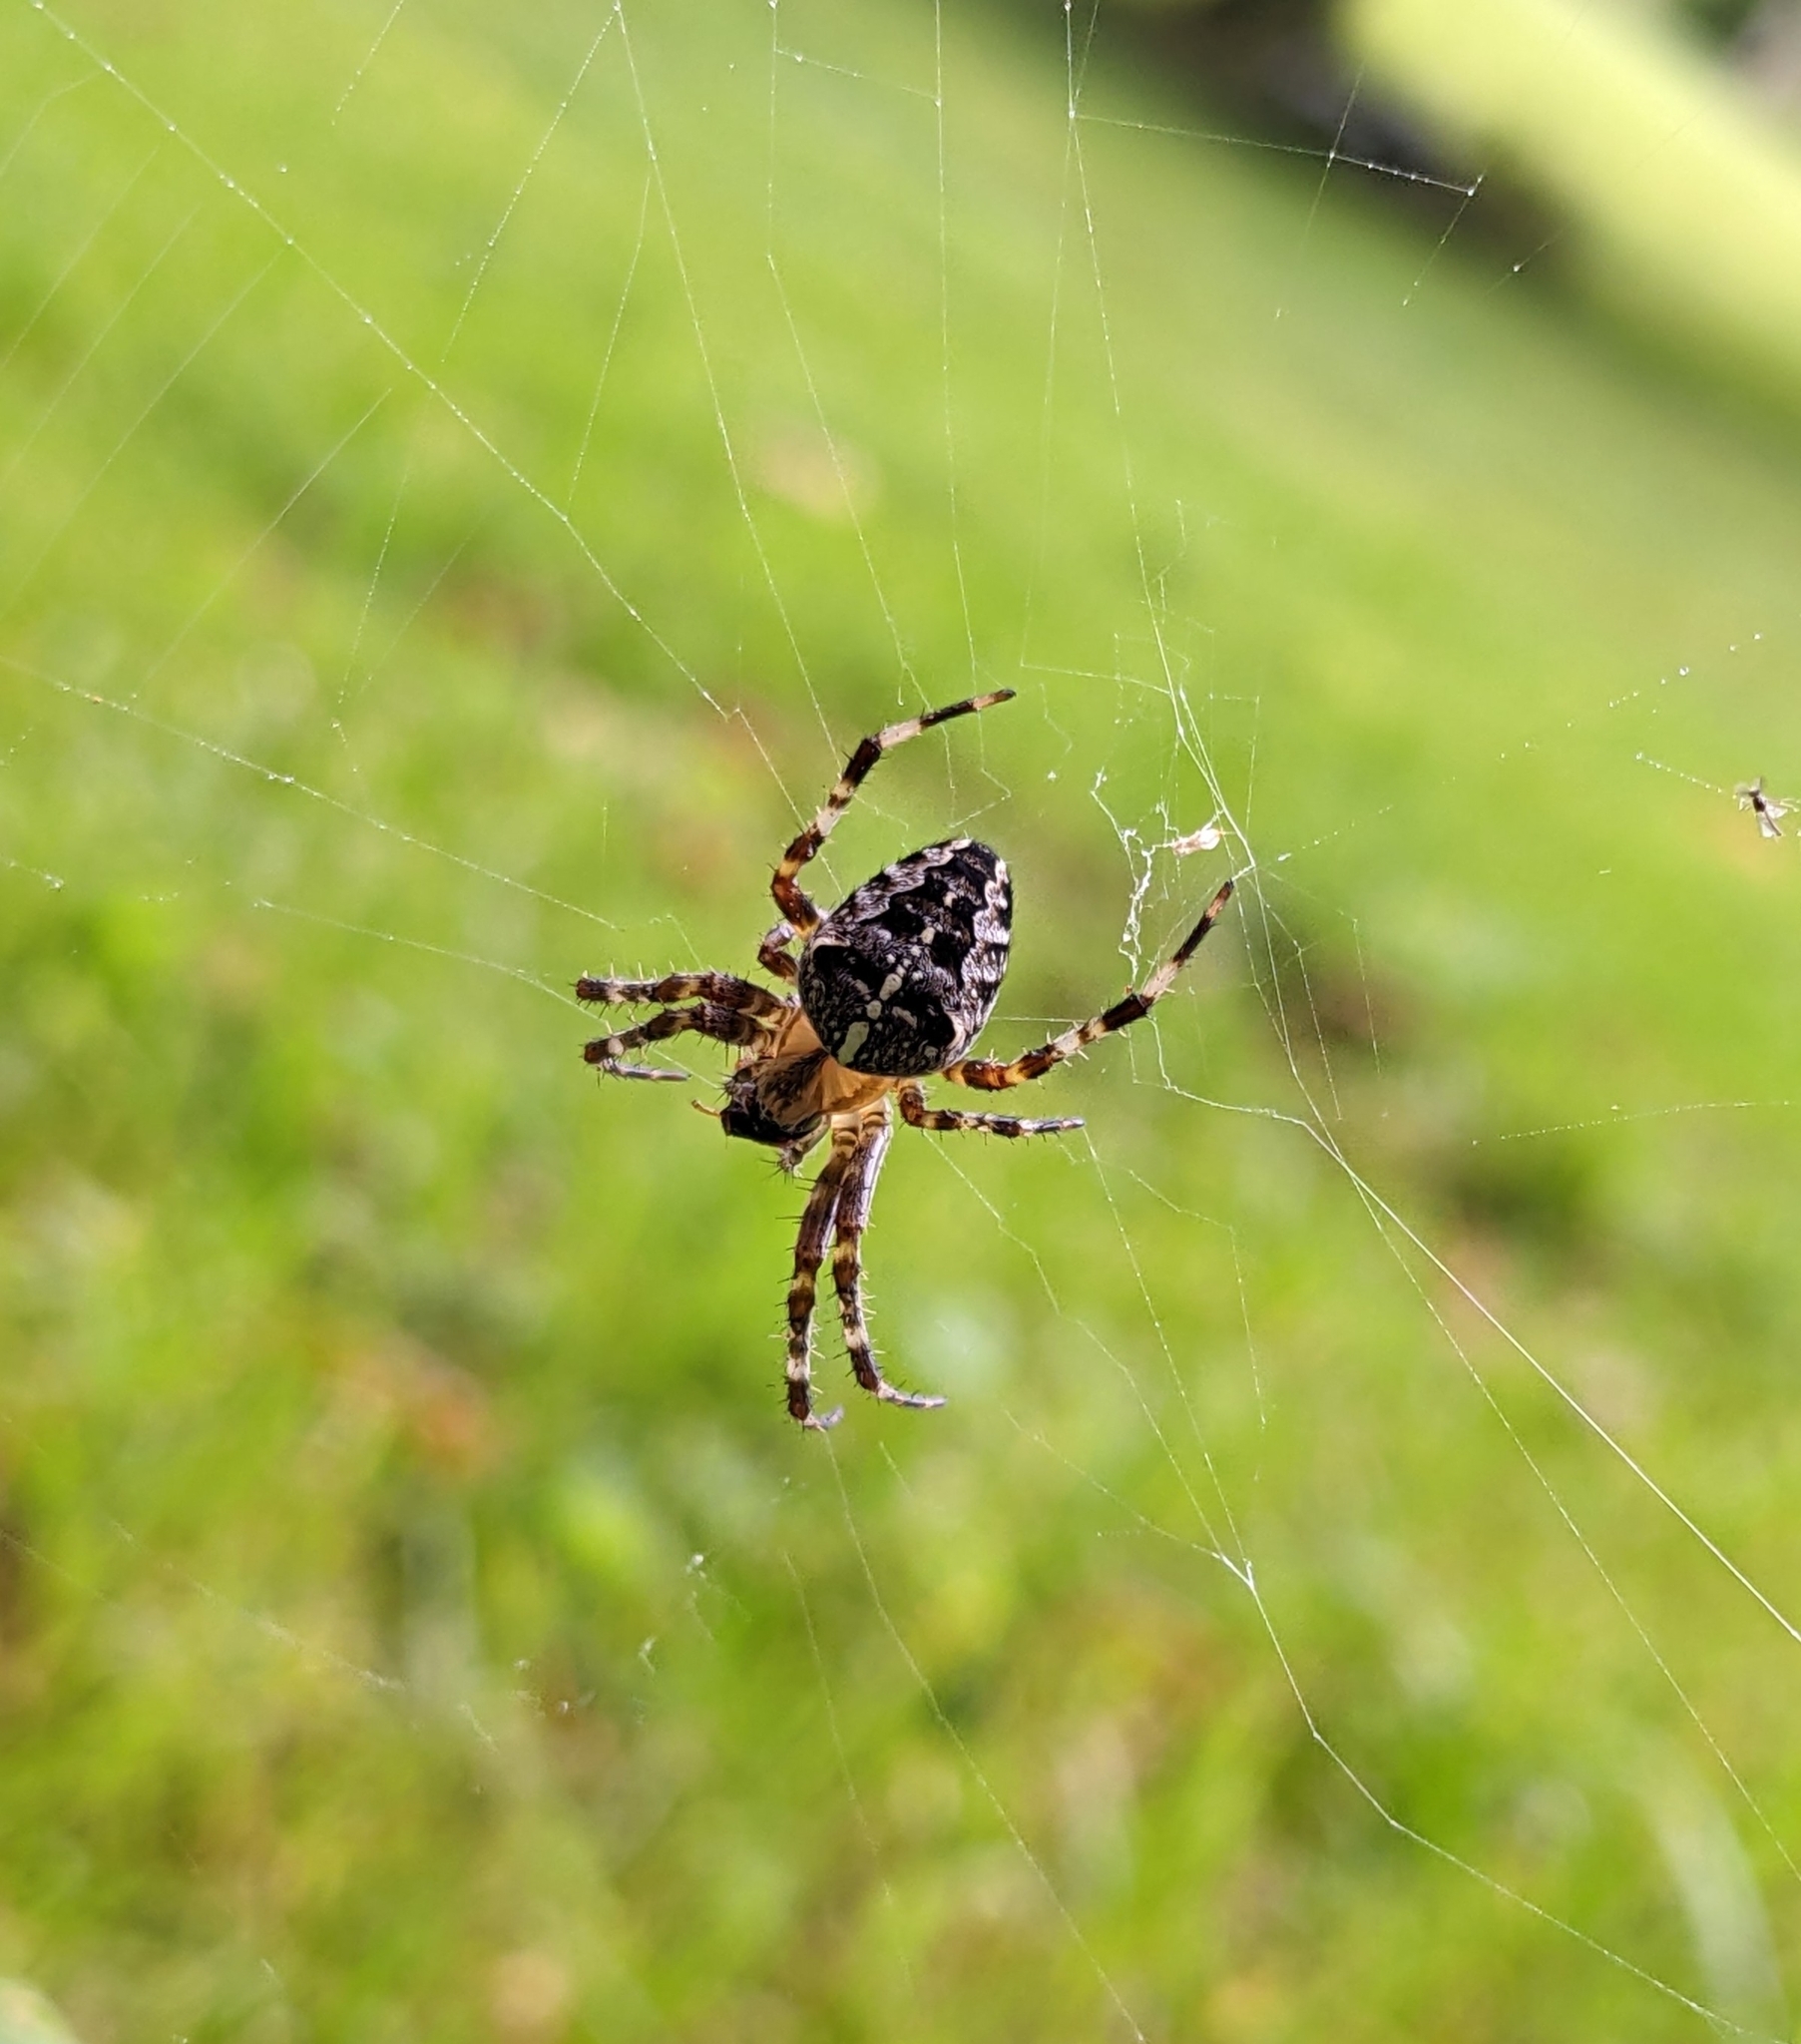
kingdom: Animalia
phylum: Arthropoda
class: Arachnida
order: Araneae
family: Araneidae
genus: Araneus
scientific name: Araneus diadematus
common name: Cross orbweaver
